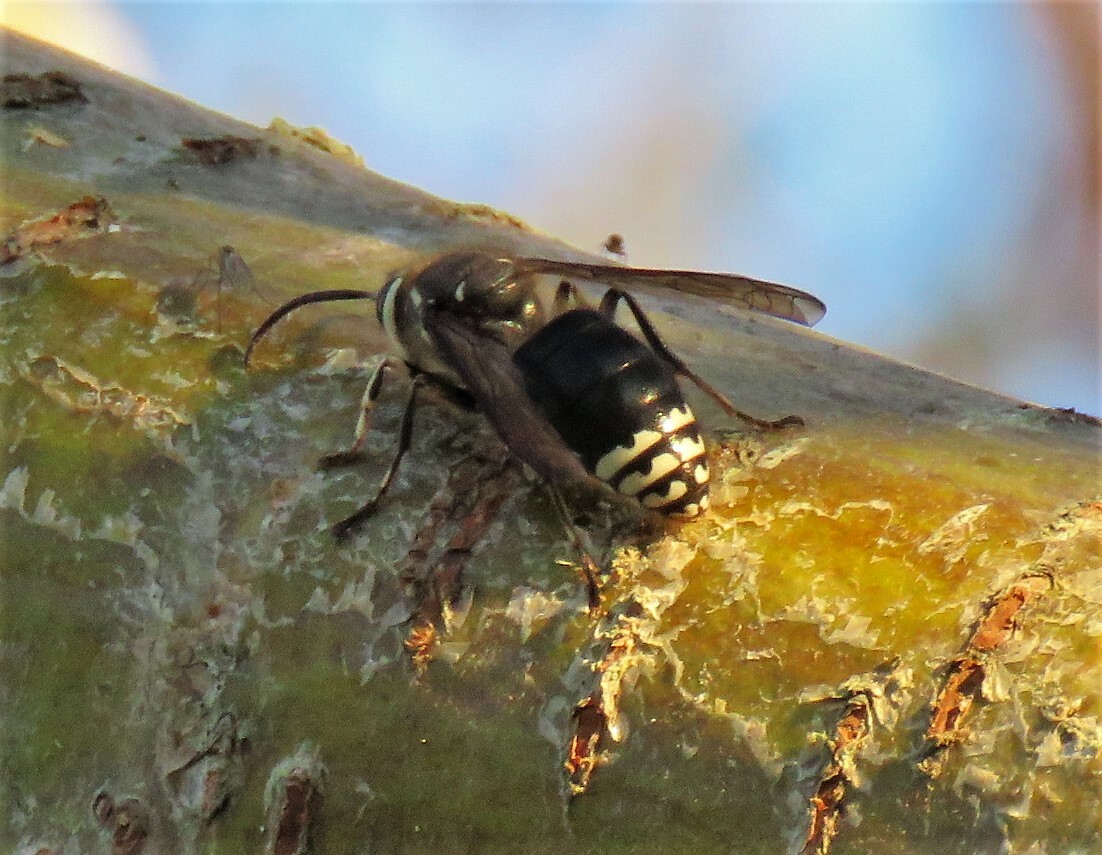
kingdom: Animalia
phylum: Arthropoda
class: Insecta
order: Hymenoptera
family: Vespidae
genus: Dolichovespula
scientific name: Dolichovespula maculata
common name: Bald-faced hornet
